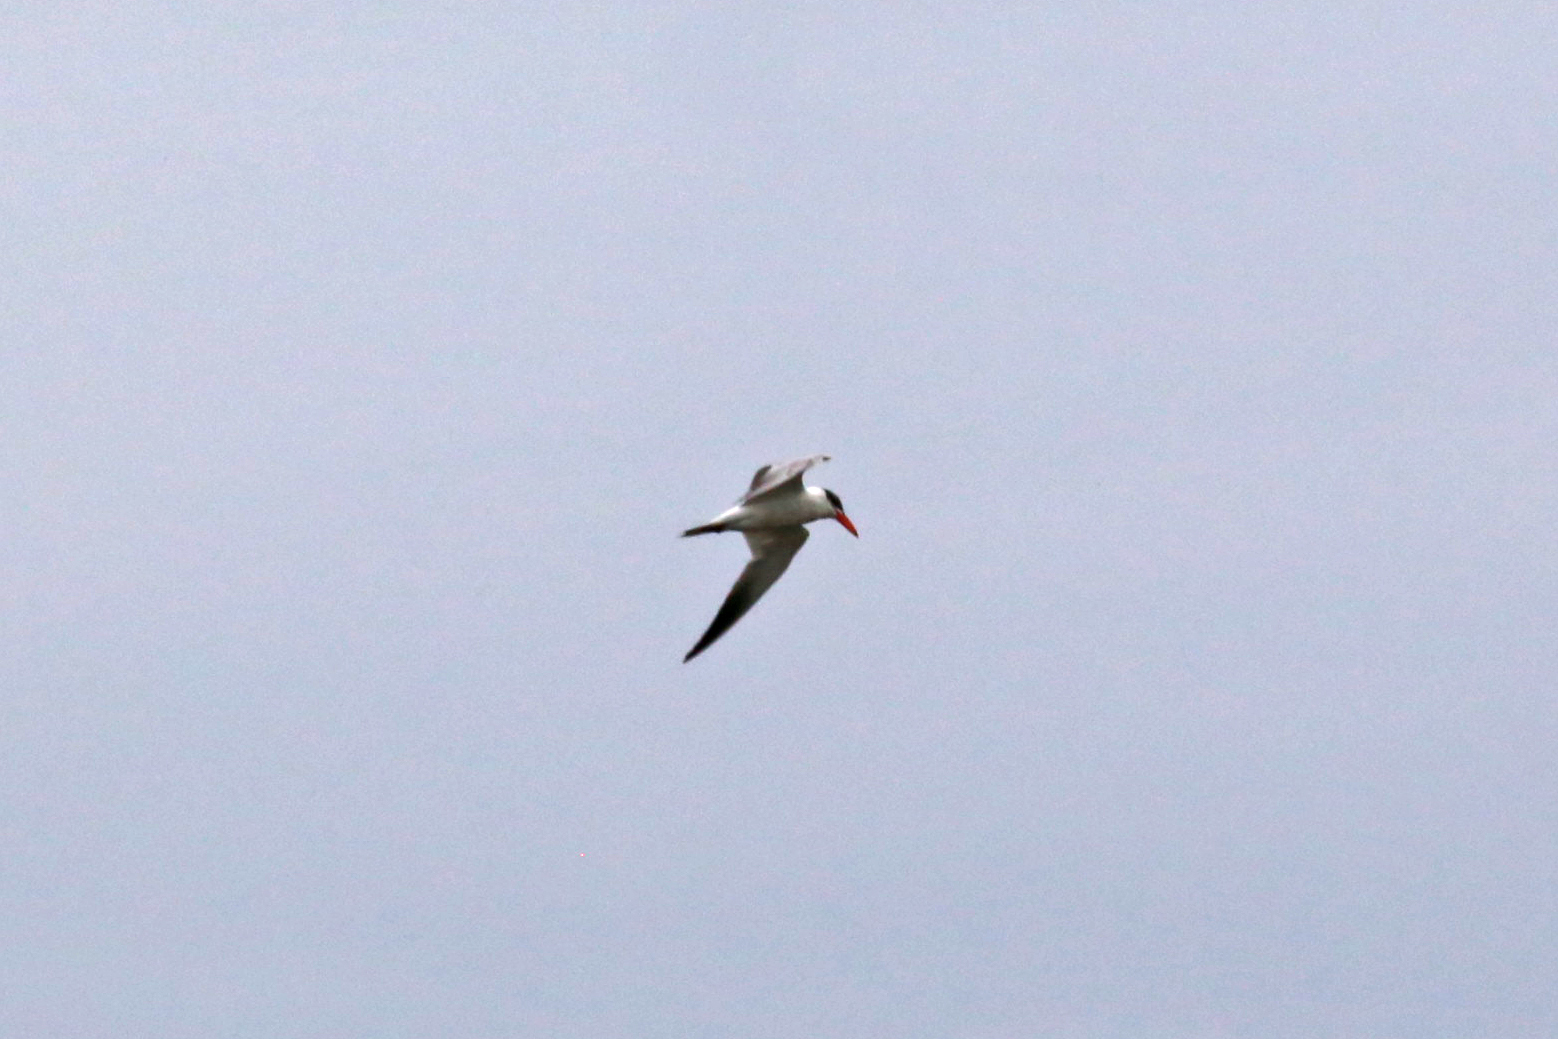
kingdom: Animalia
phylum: Chordata
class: Aves
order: Charadriiformes
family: Laridae
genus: Hydroprogne
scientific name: Hydroprogne caspia
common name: Caspian tern
